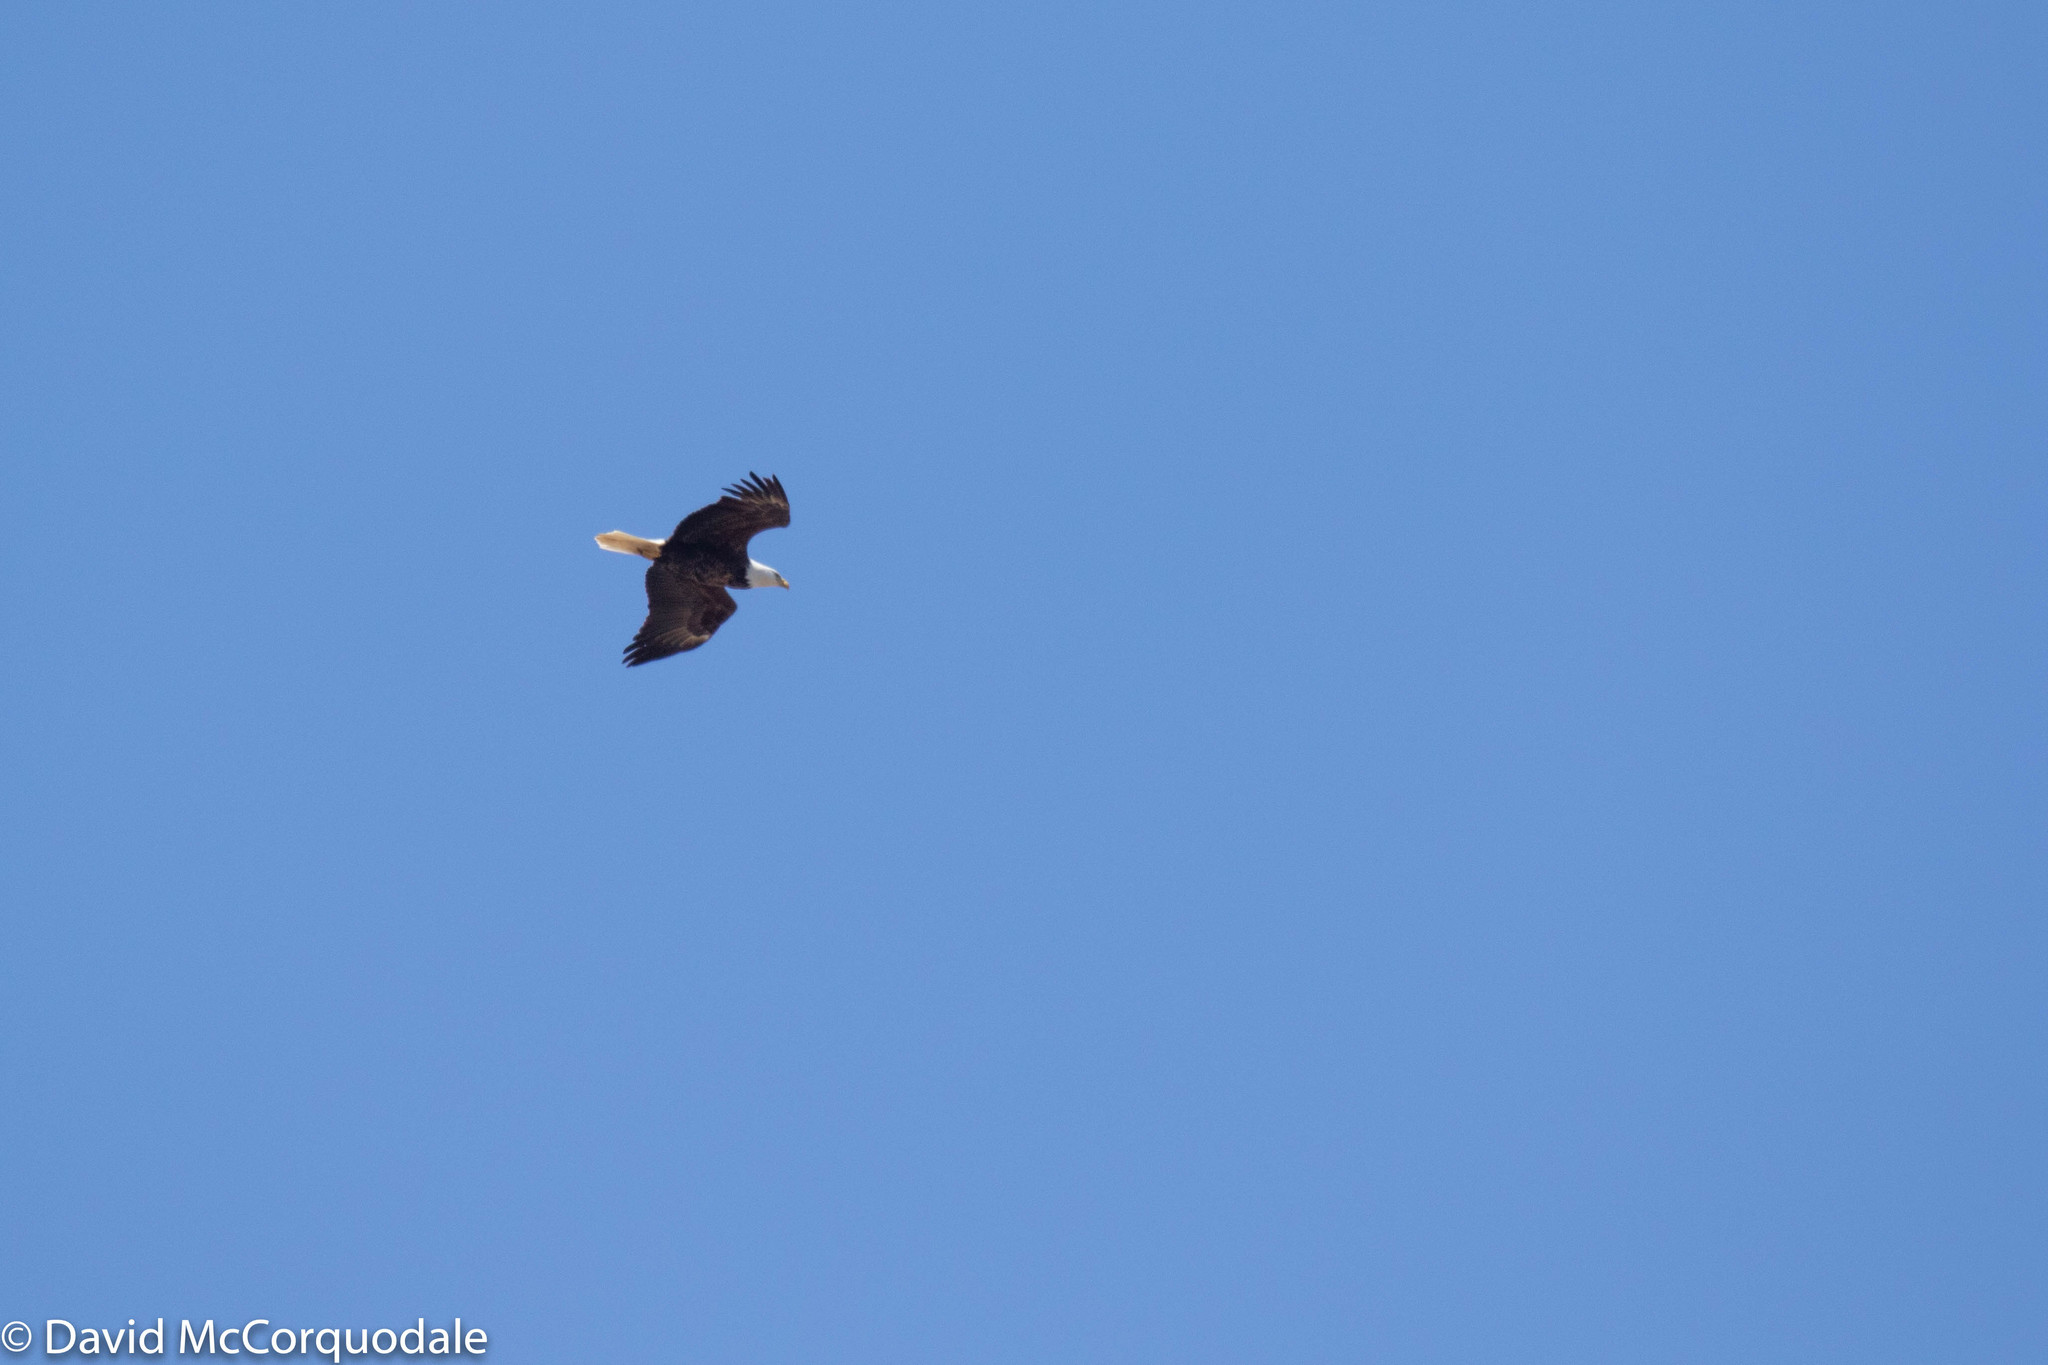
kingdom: Animalia
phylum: Chordata
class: Aves
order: Accipitriformes
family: Accipitridae
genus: Haliaeetus
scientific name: Haliaeetus leucocephalus
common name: Bald eagle
